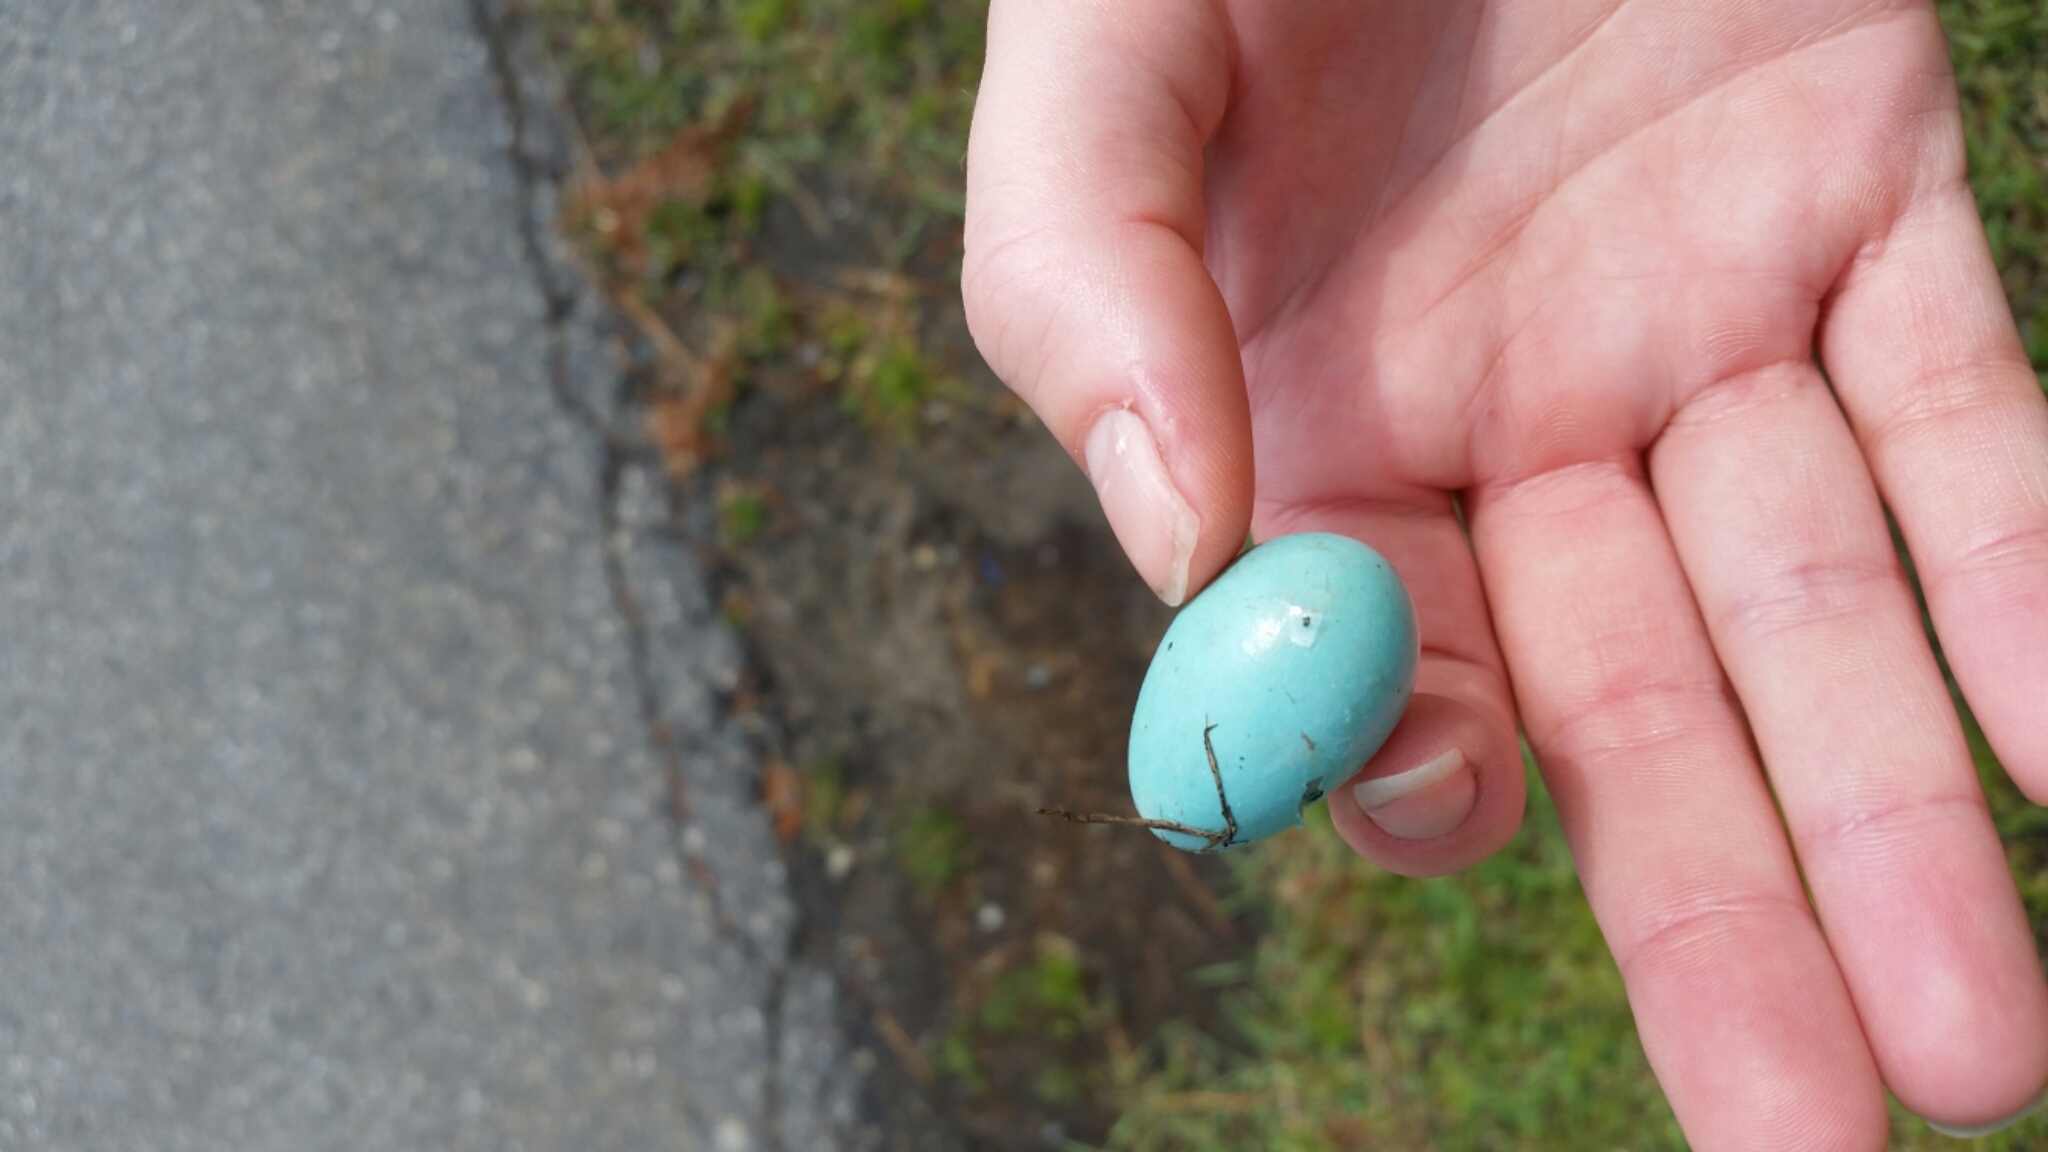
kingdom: Animalia
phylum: Chordata
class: Aves
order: Passeriformes
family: Turdidae
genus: Turdus
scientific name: Turdus migratorius
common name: American robin
